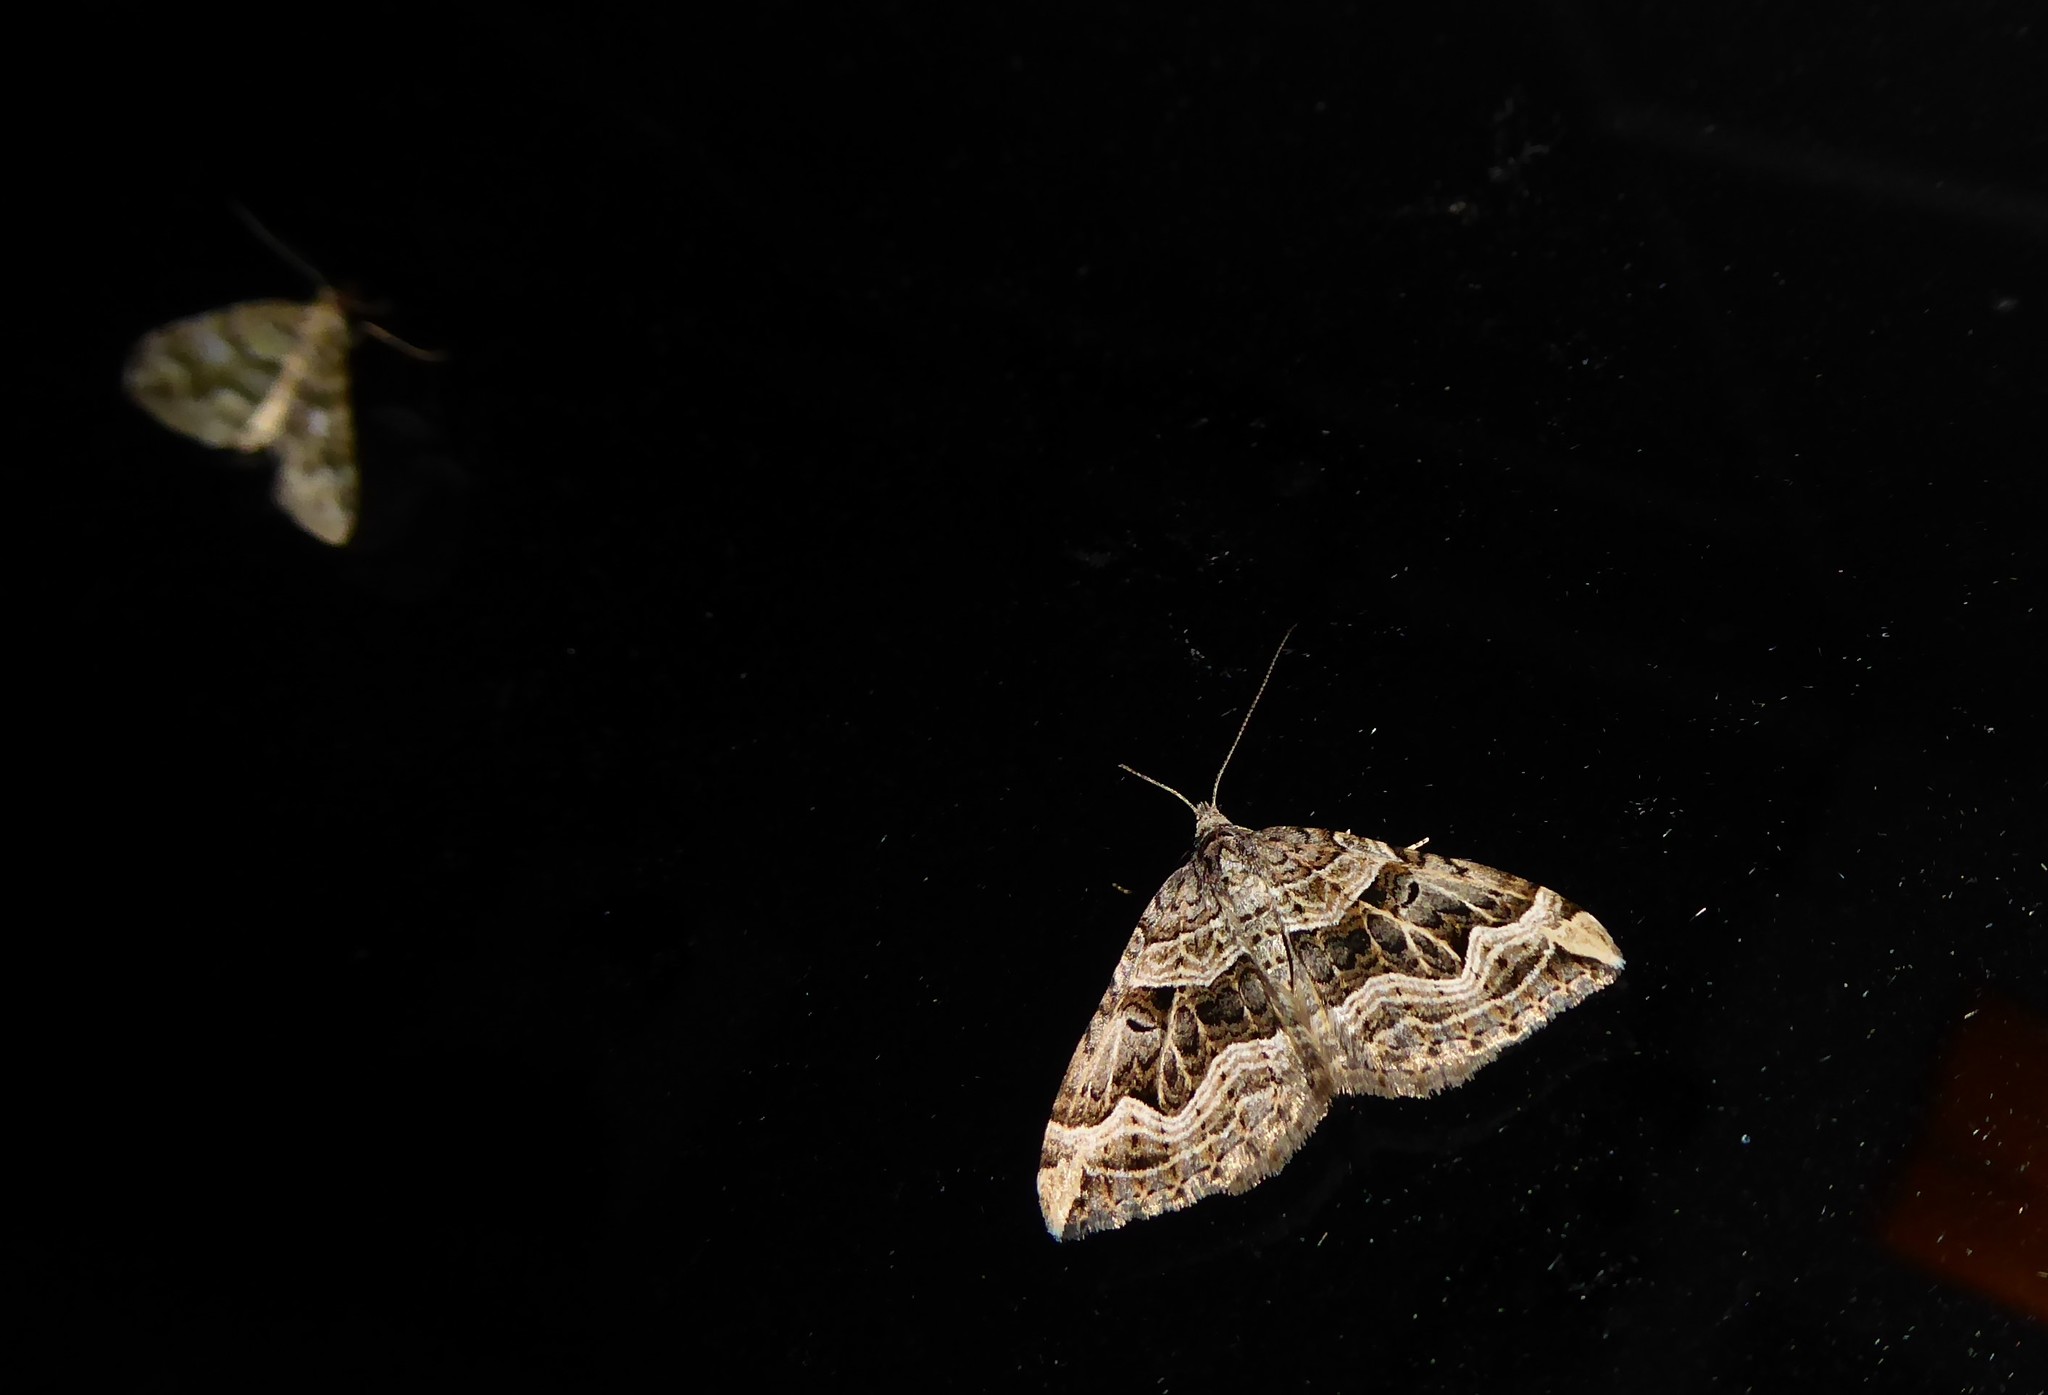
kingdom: Animalia
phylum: Arthropoda
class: Insecta
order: Lepidoptera
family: Geometridae
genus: Xanthorhoe
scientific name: Xanthorhoe semifissata
